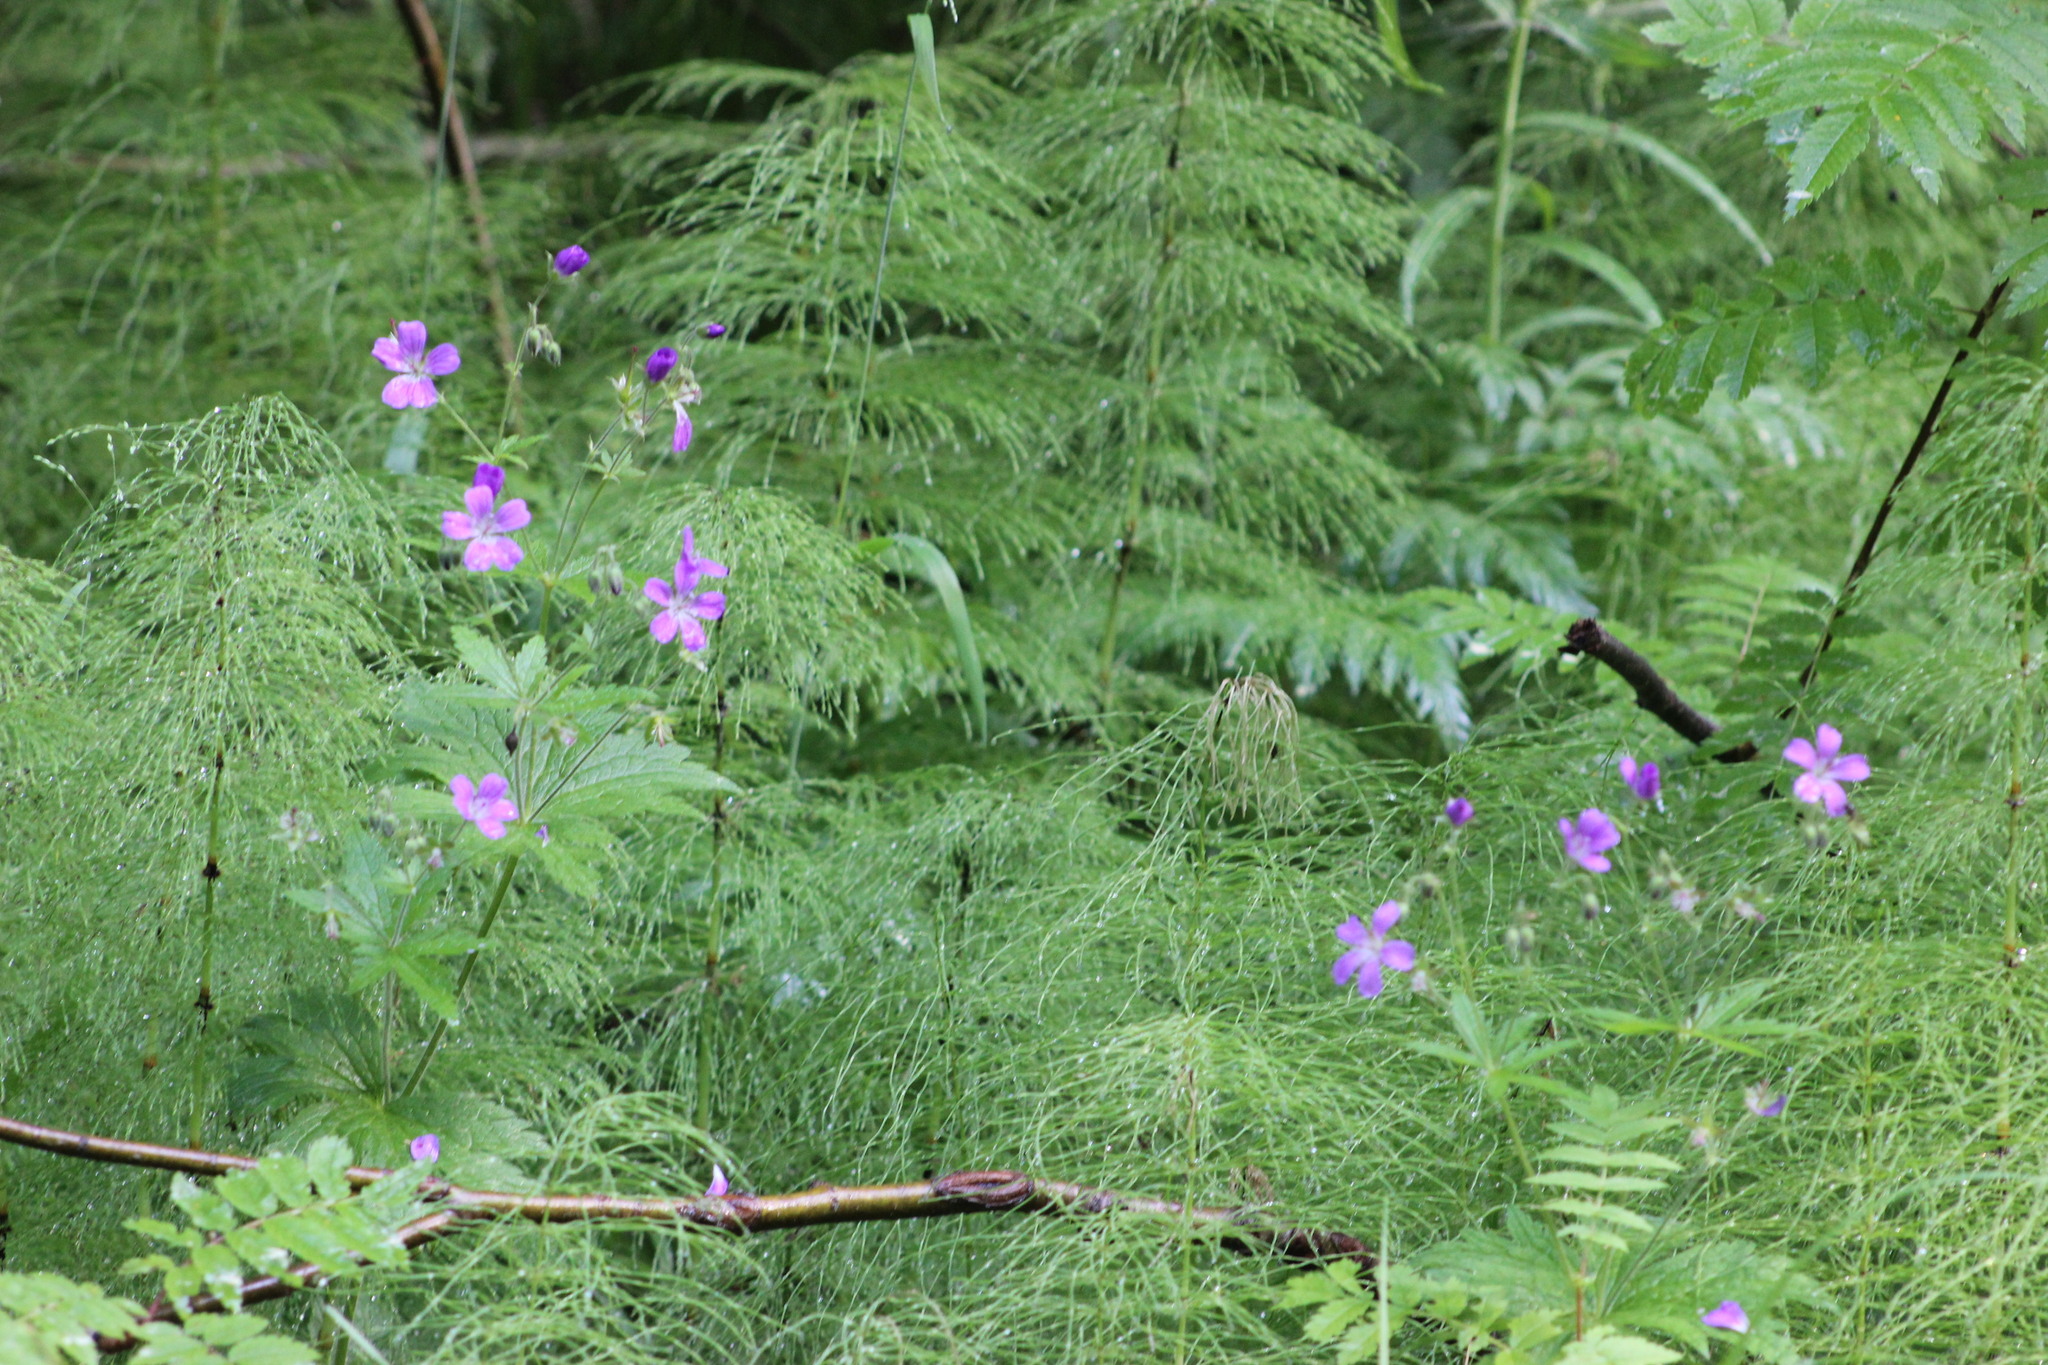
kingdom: Plantae
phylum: Tracheophyta
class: Magnoliopsida
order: Geraniales
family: Geraniaceae
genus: Geranium
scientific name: Geranium sylvaticum
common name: Wood crane's-bill
